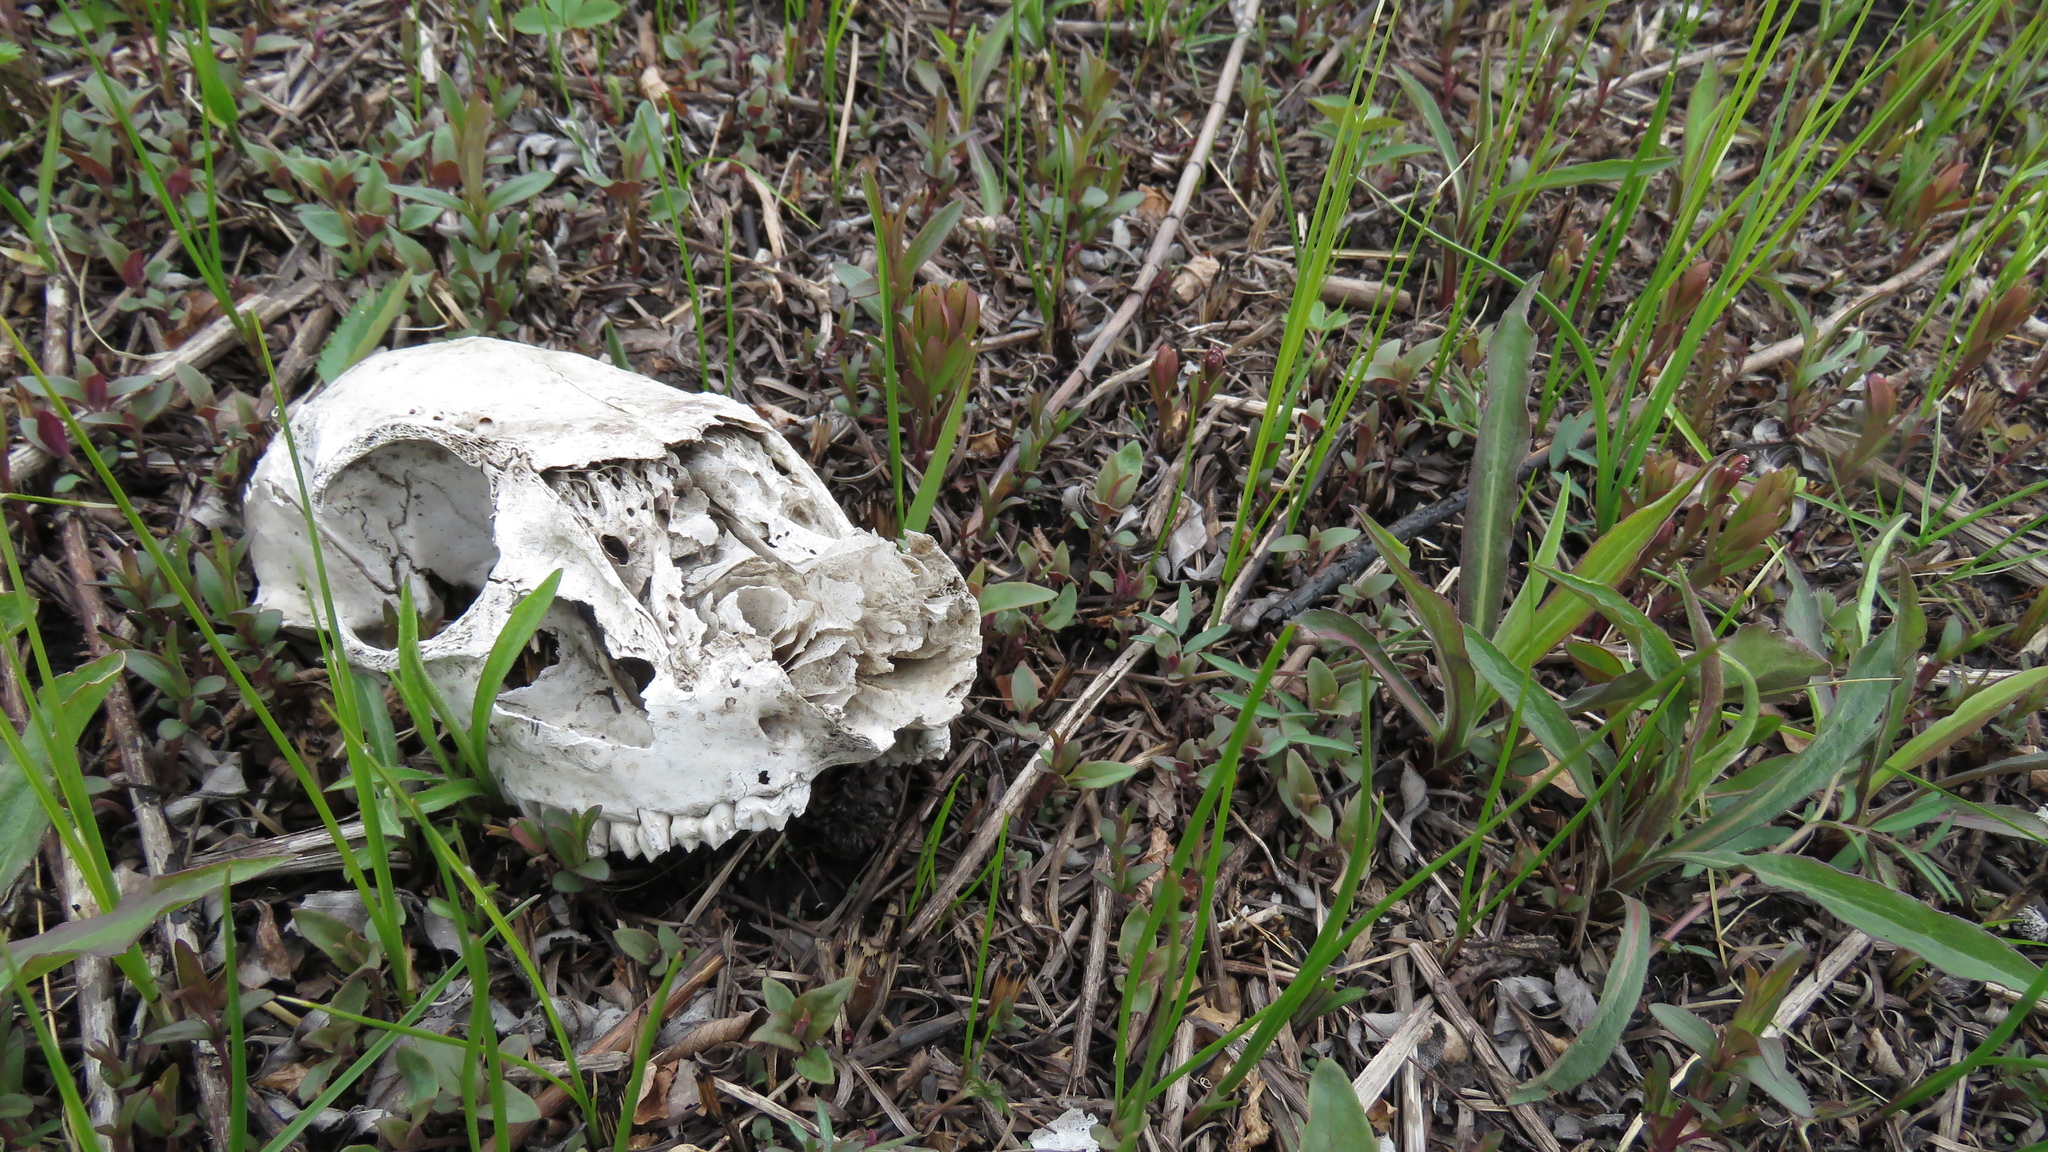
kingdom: Animalia
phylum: Chordata
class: Mammalia
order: Artiodactyla
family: Cervidae
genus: Odocoileus
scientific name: Odocoileus virginianus
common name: White-tailed deer
